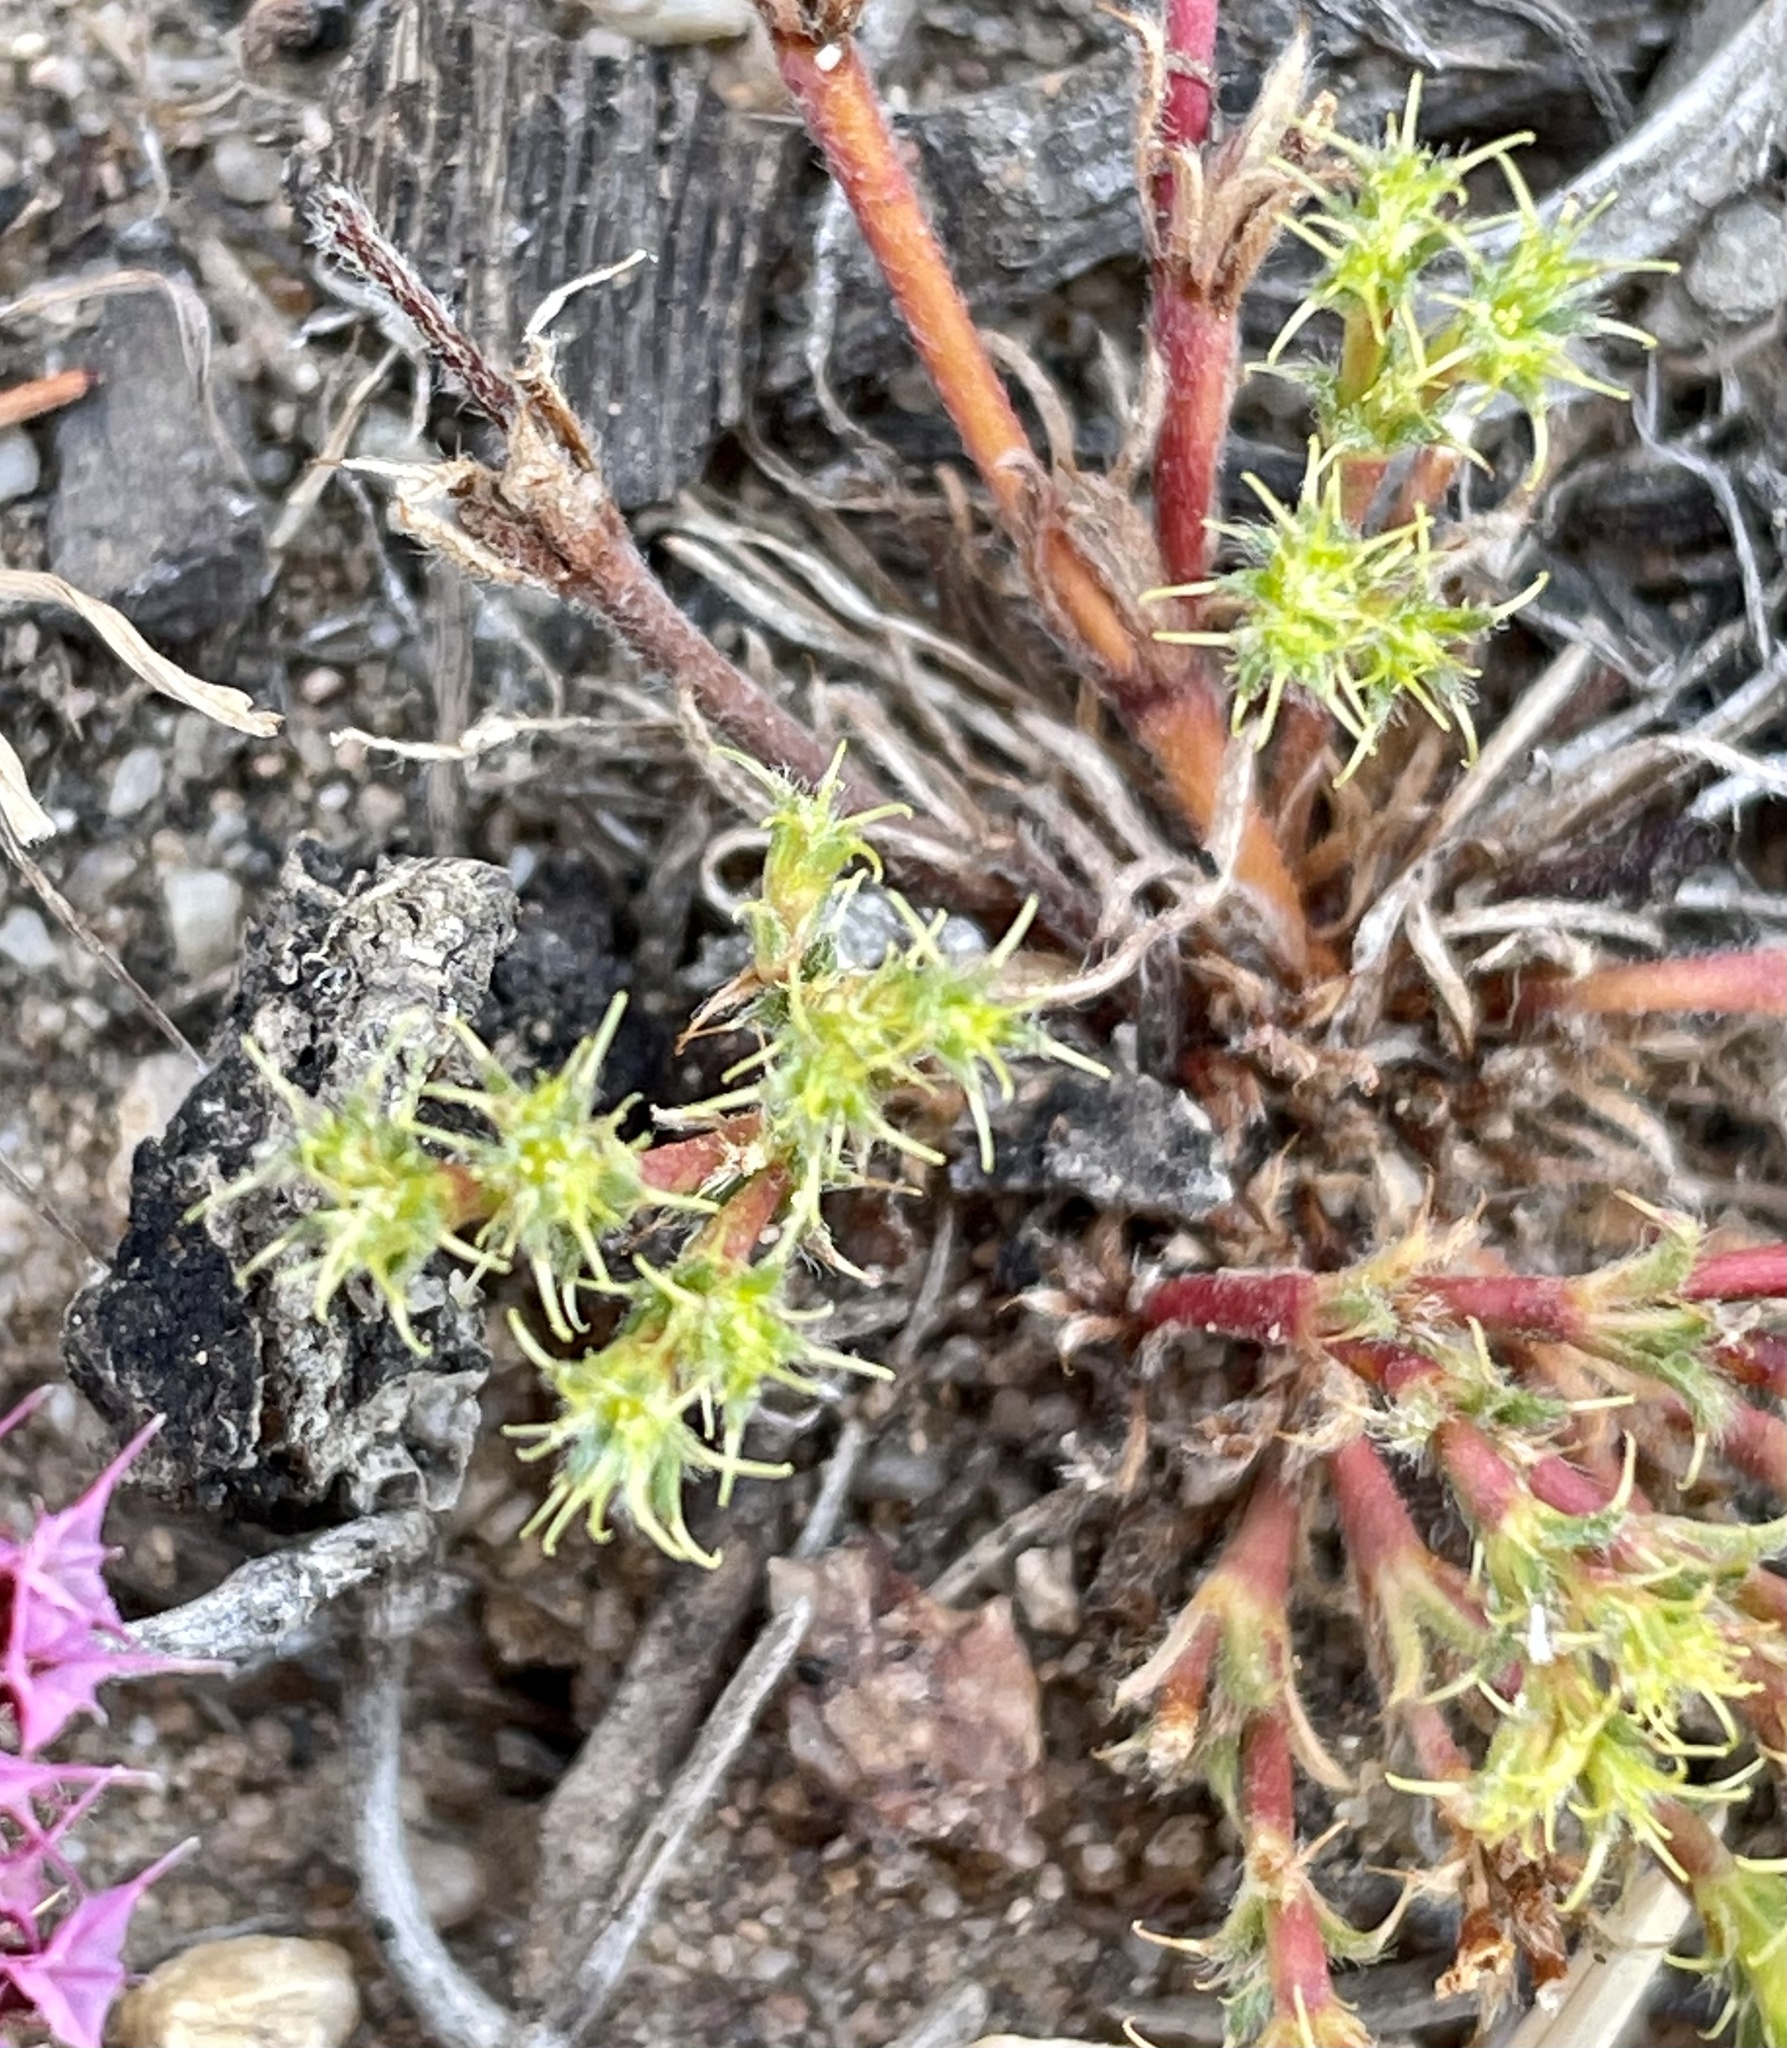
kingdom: Plantae
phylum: Tracheophyta
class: Magnoliopsida
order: Caryophyllales
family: Polygonaceae
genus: Lastarriaea
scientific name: Lastarriaea coriacea
